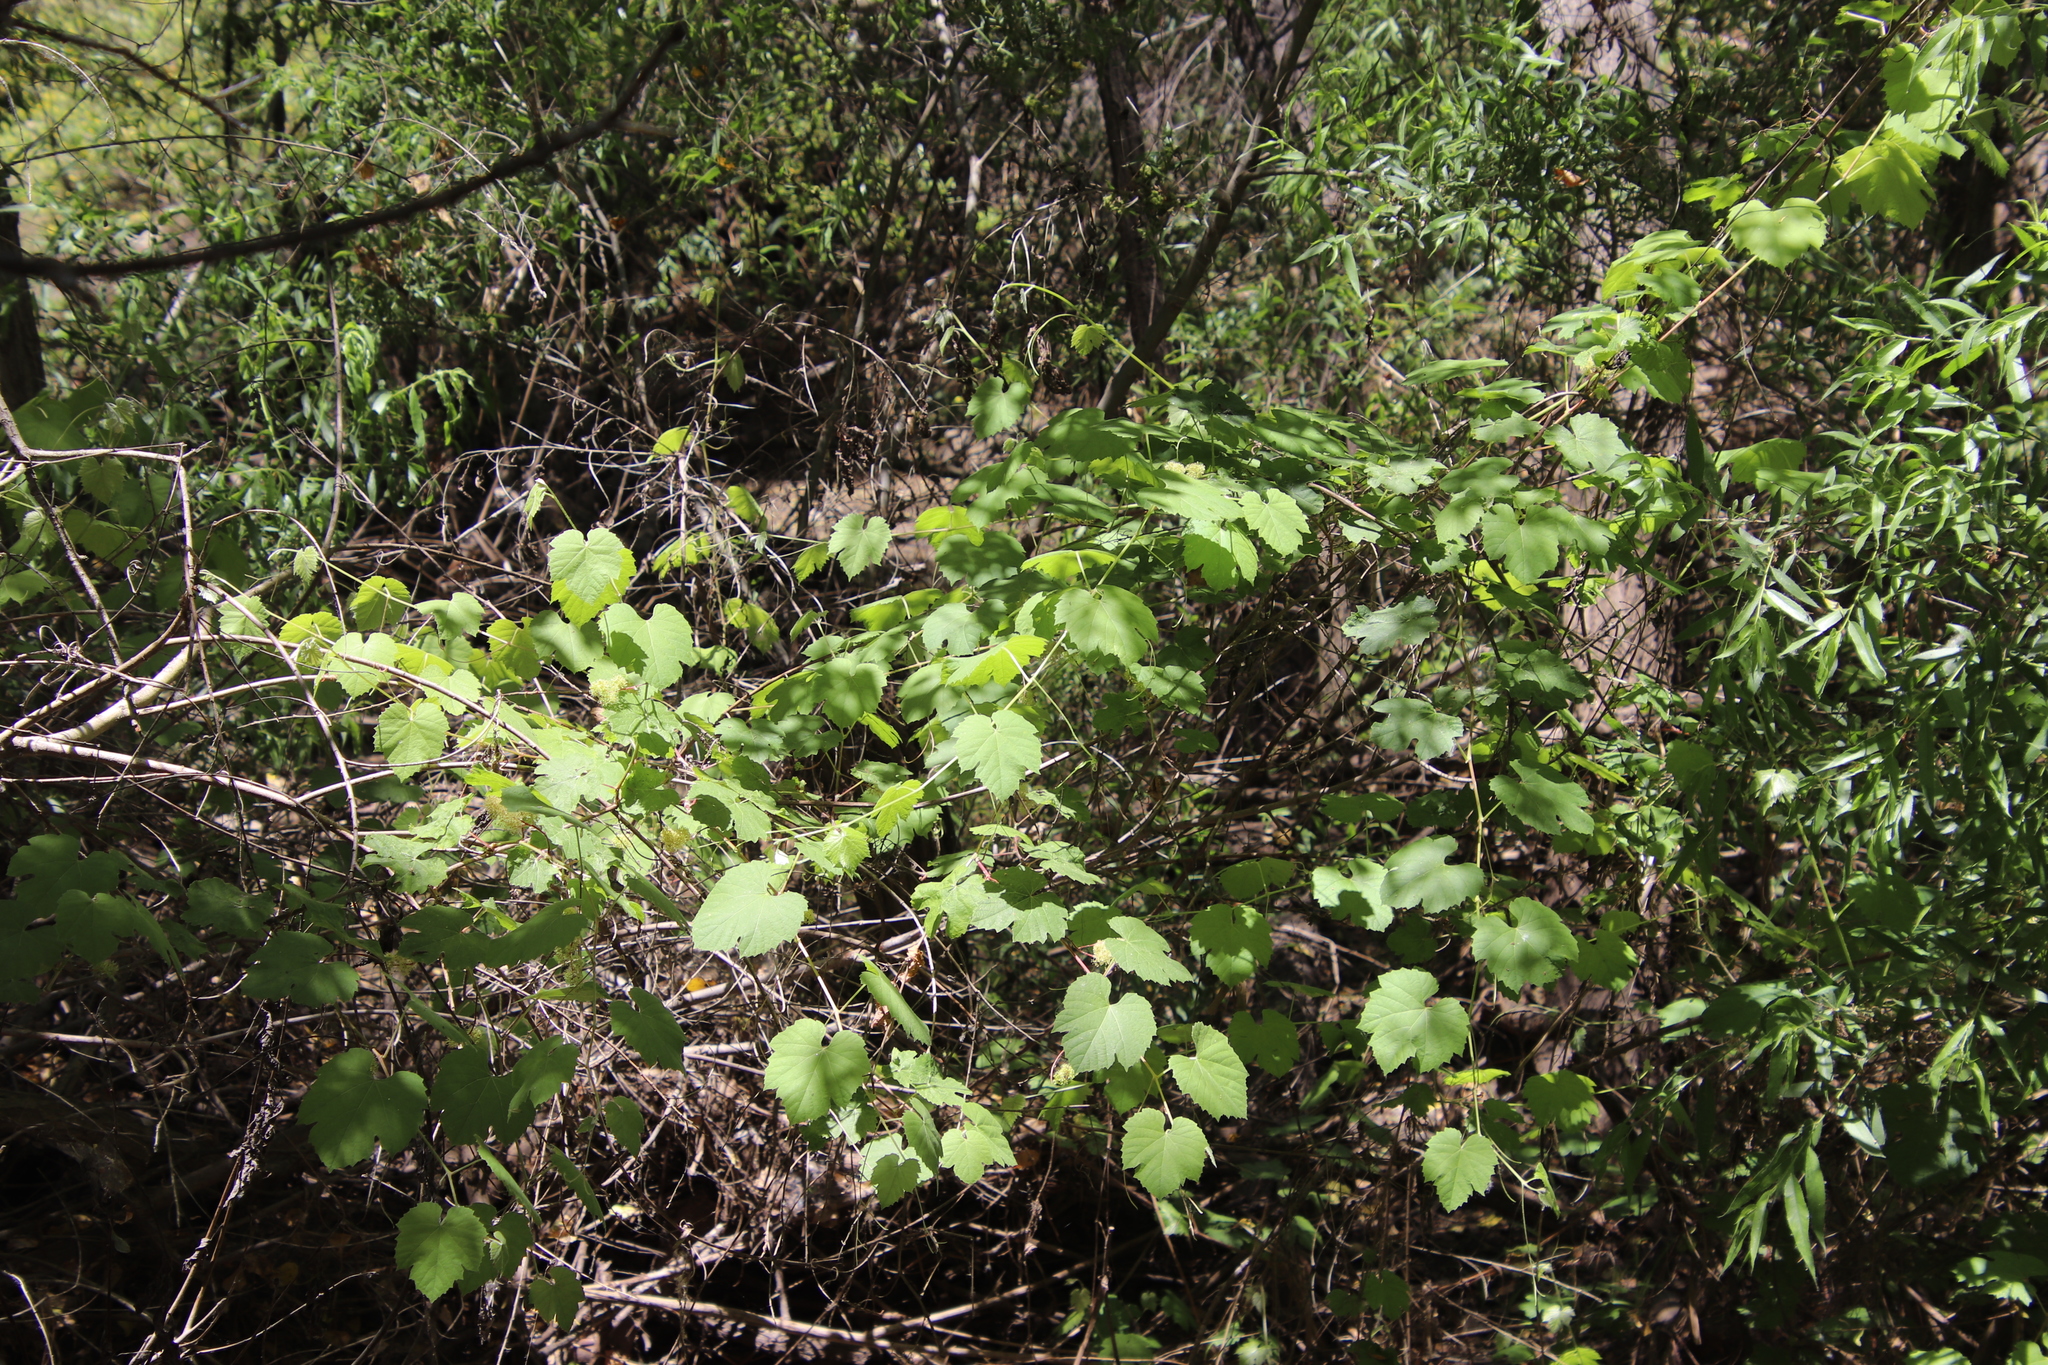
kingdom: Plantae
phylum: Tracheophyta
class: Magnoliopsida
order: Vitales
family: Vitaceae
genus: Vitis
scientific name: Vitis girdiana
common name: Desert wild grape
